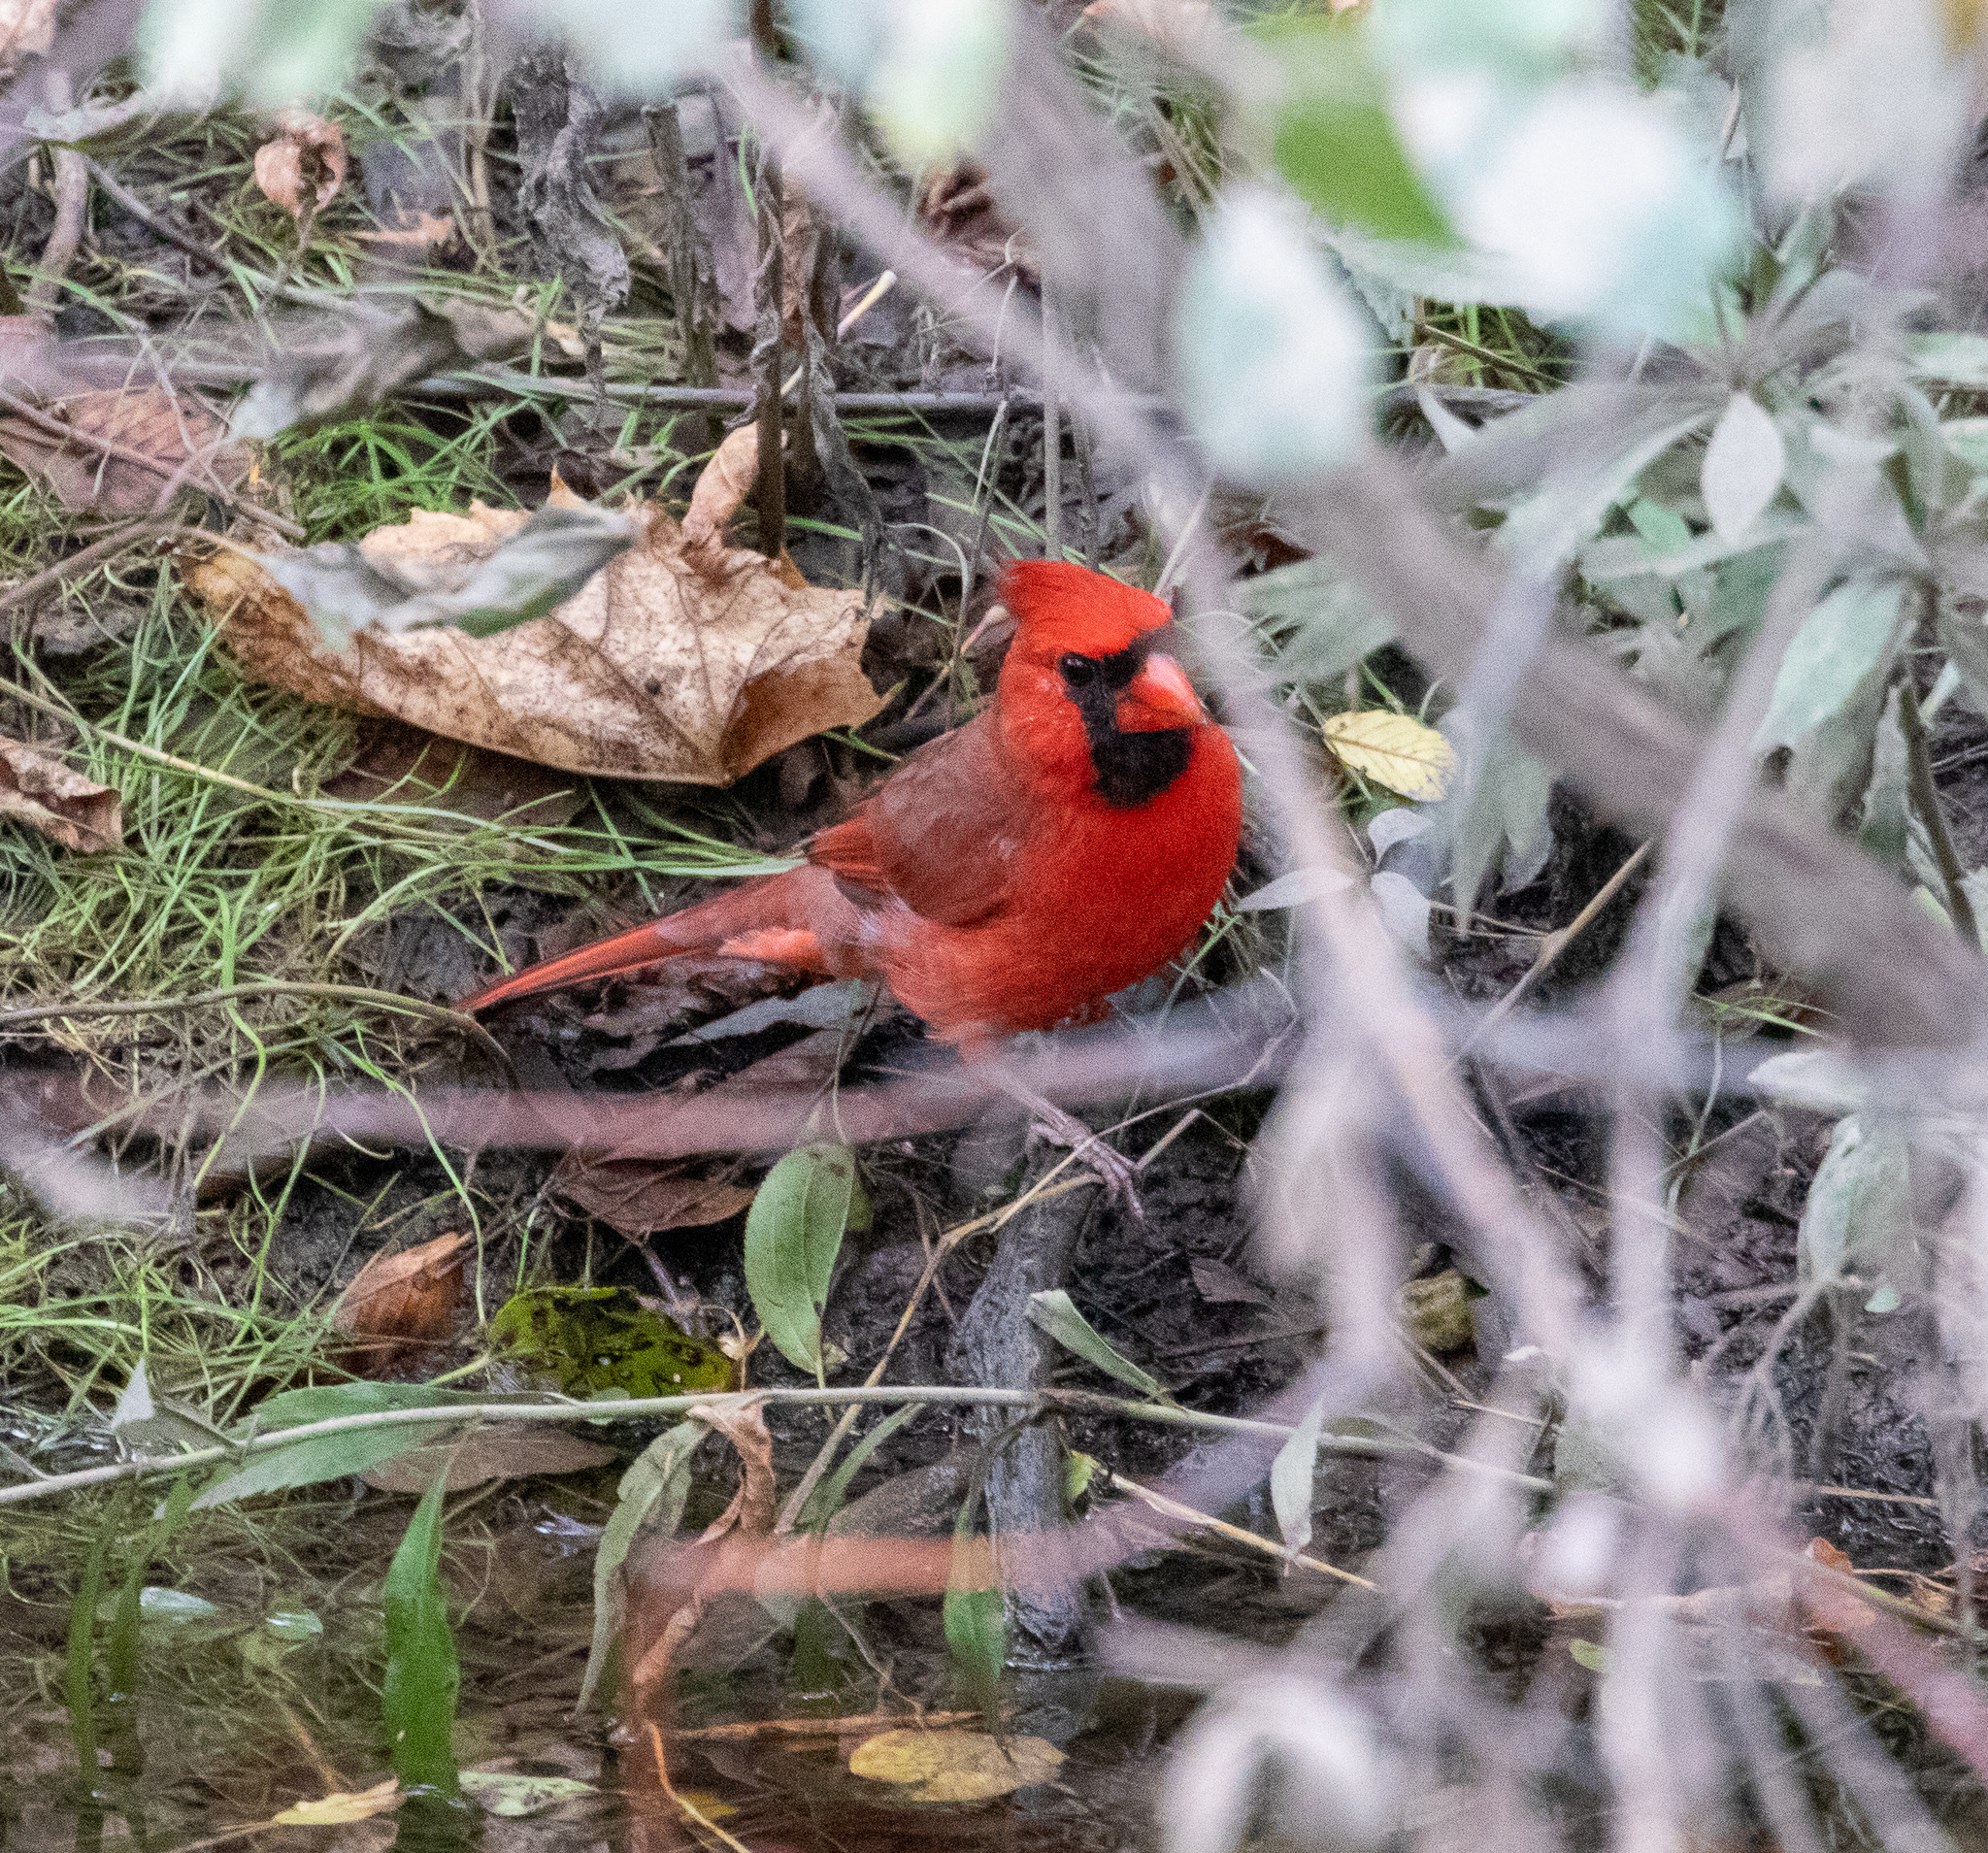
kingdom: Animalia
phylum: Chordata
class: Aves
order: Passeriformes
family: Cardinalidae
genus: Cardinalis
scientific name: Cardinalis cardinalis
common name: Northern cardinal
